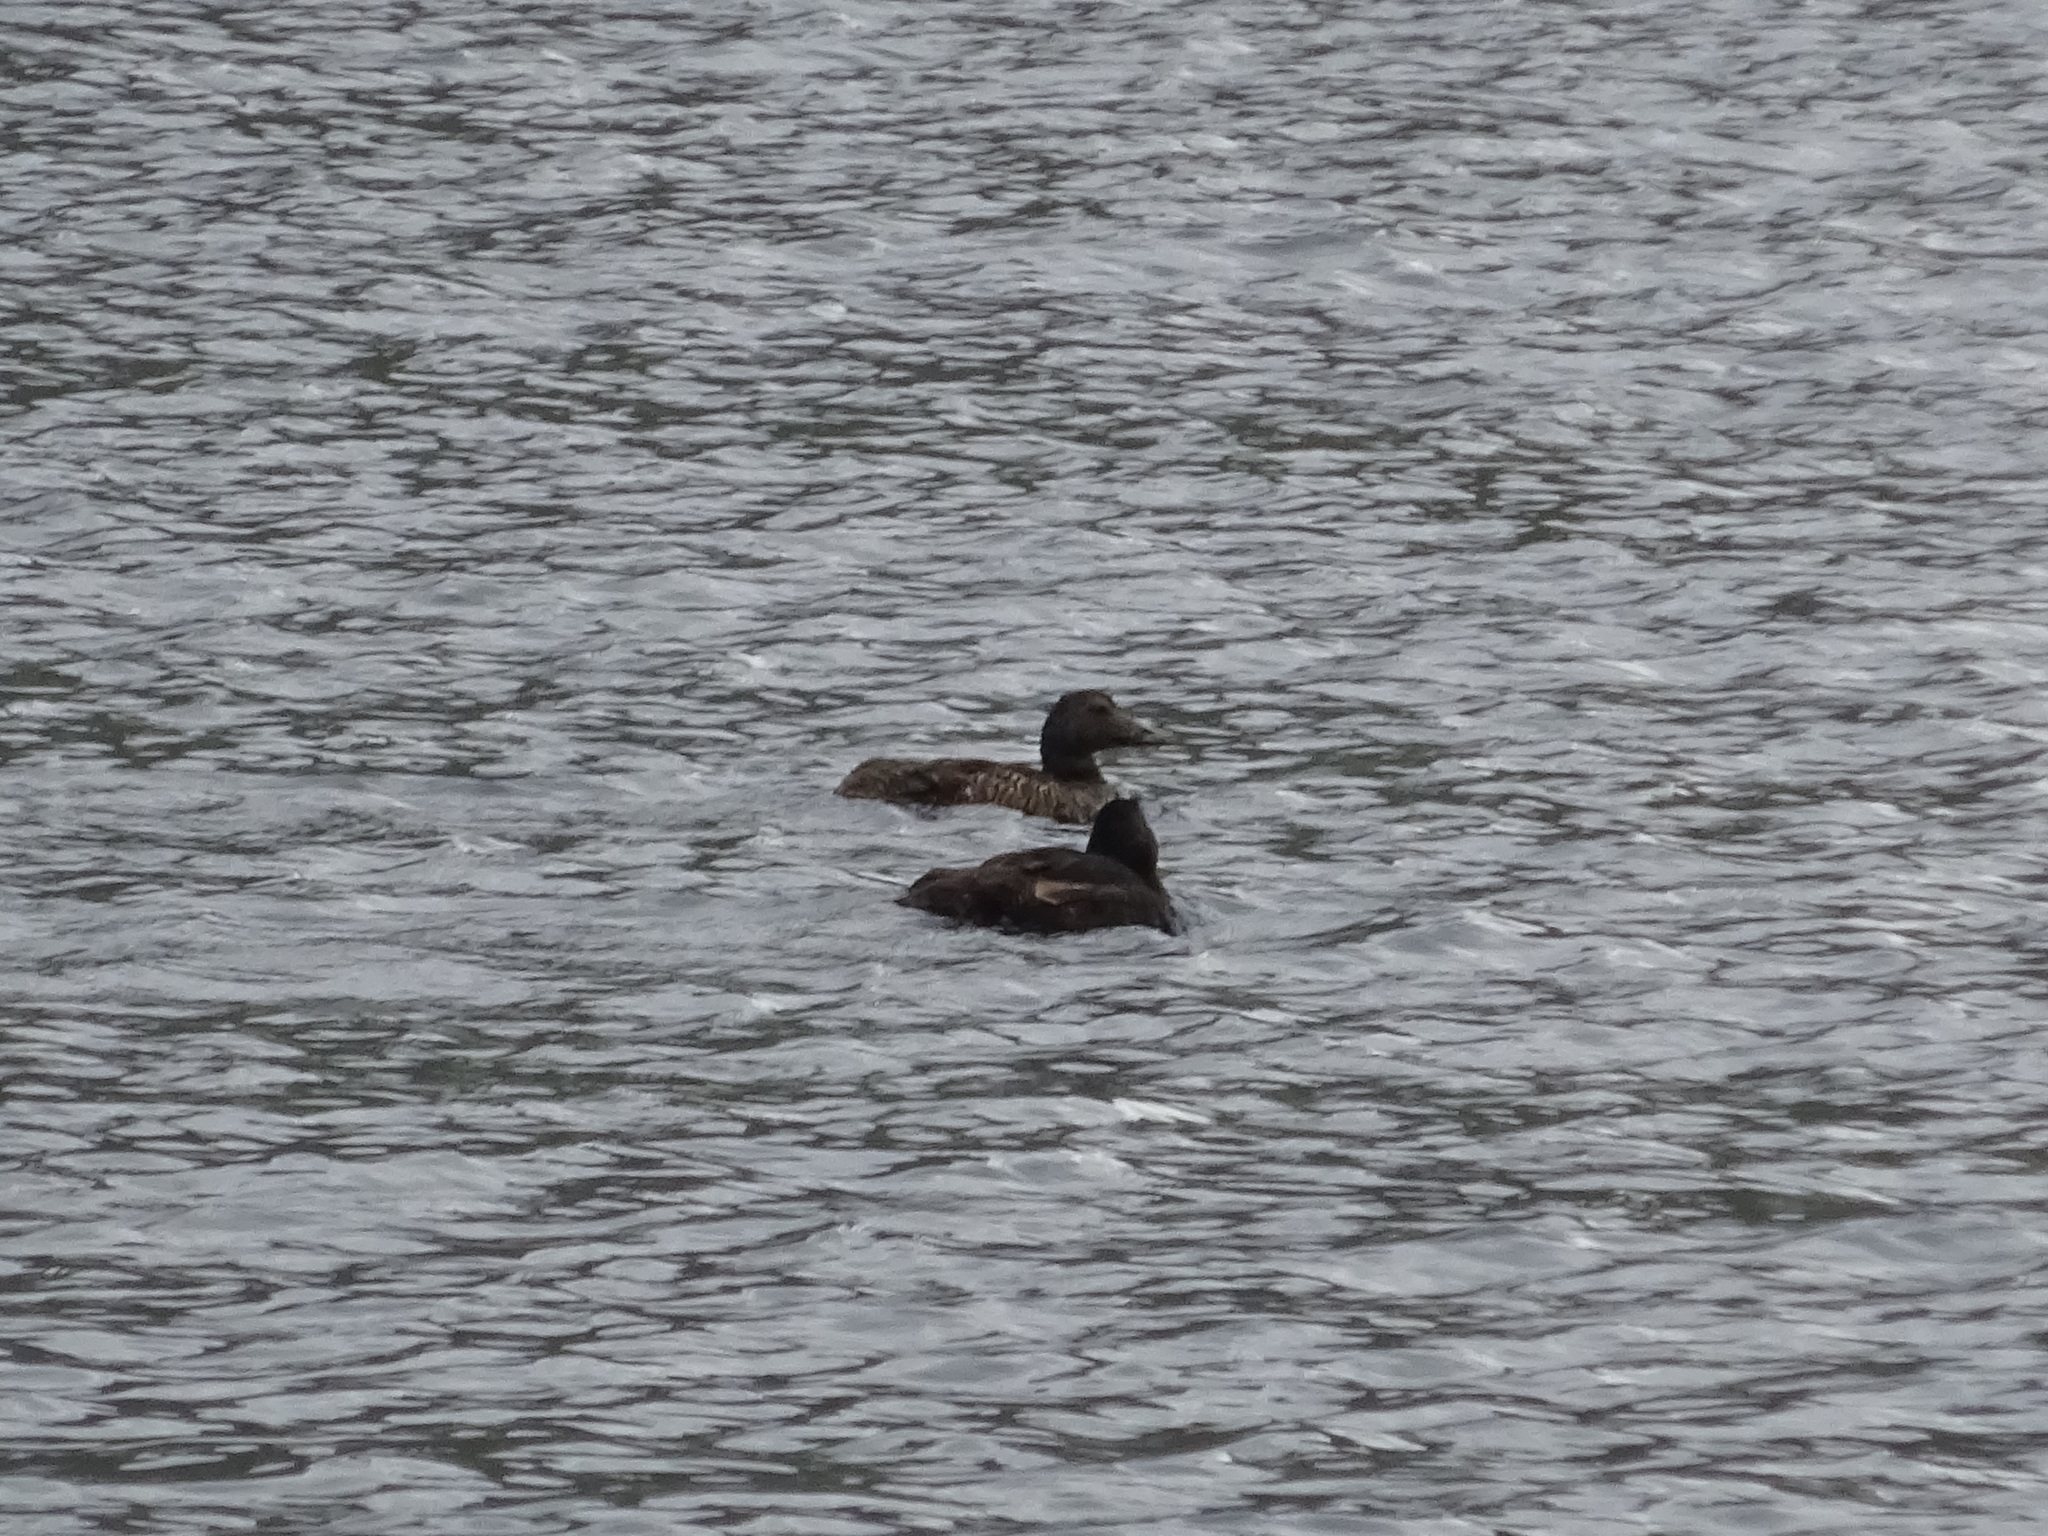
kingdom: Animalia
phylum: Chordata
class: Aves
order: Anseriformes
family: Anatidae
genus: Somateria
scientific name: Somateria mollissima
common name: Common eider
